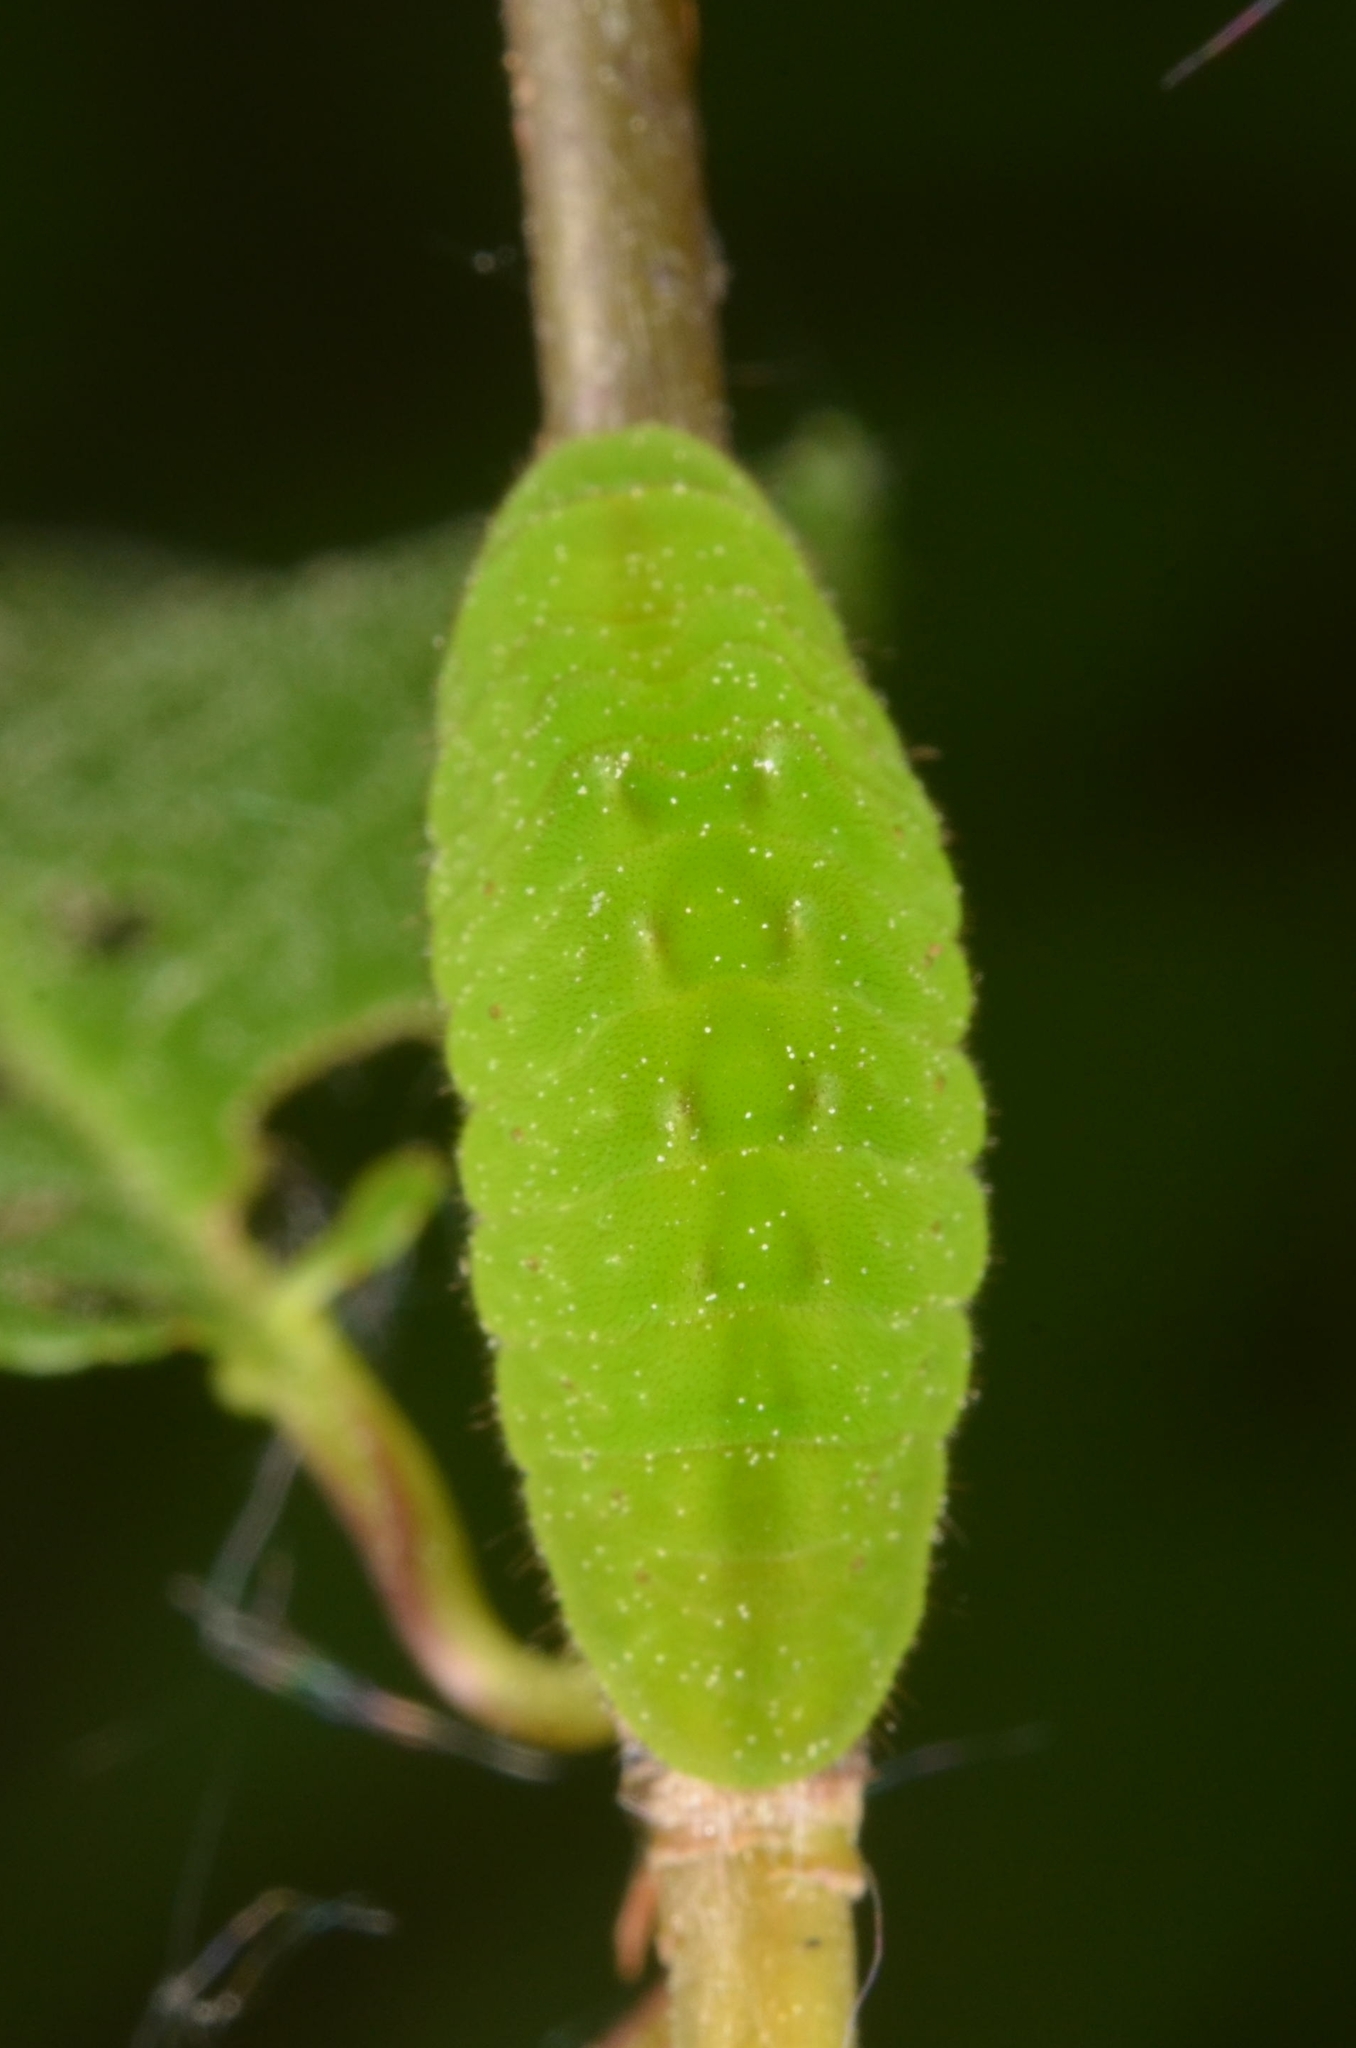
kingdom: Animalia
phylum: Arthropoda
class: Insecta
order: Lepidoptera
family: Lycaenidae
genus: Fixsenia
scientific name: Fixsenia pruni
